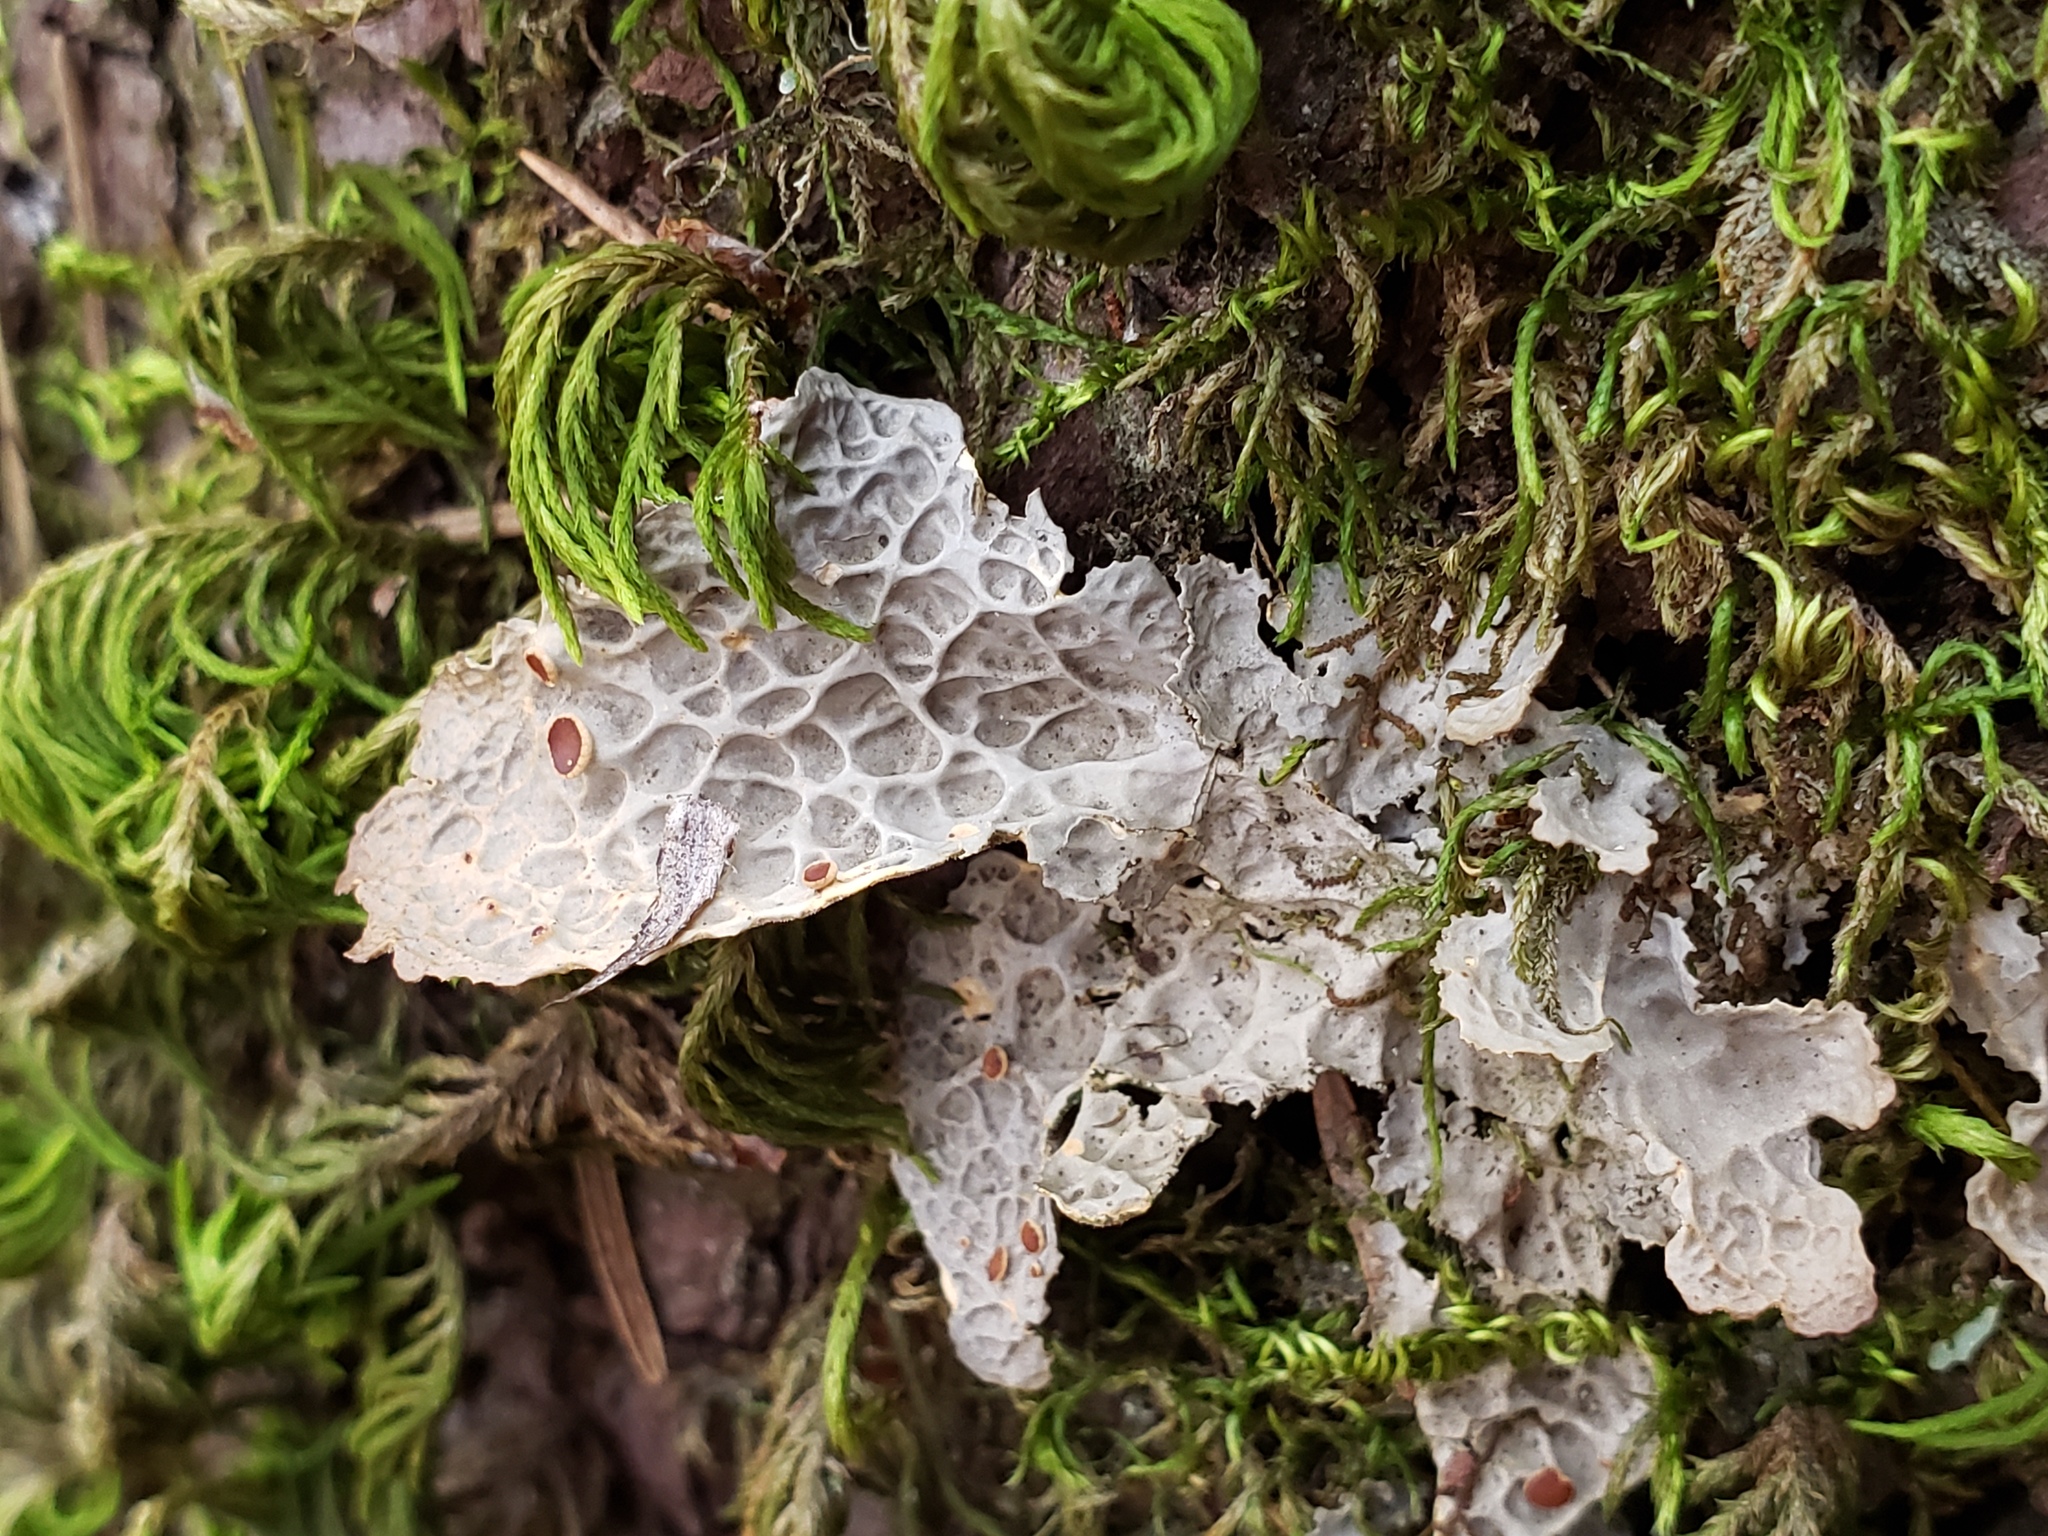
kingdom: Fungi
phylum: Ascomycota
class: Lecanoromycetes
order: Peltigerales
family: Lobariaceae
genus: Lobaria
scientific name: Lobaria anthraspis
